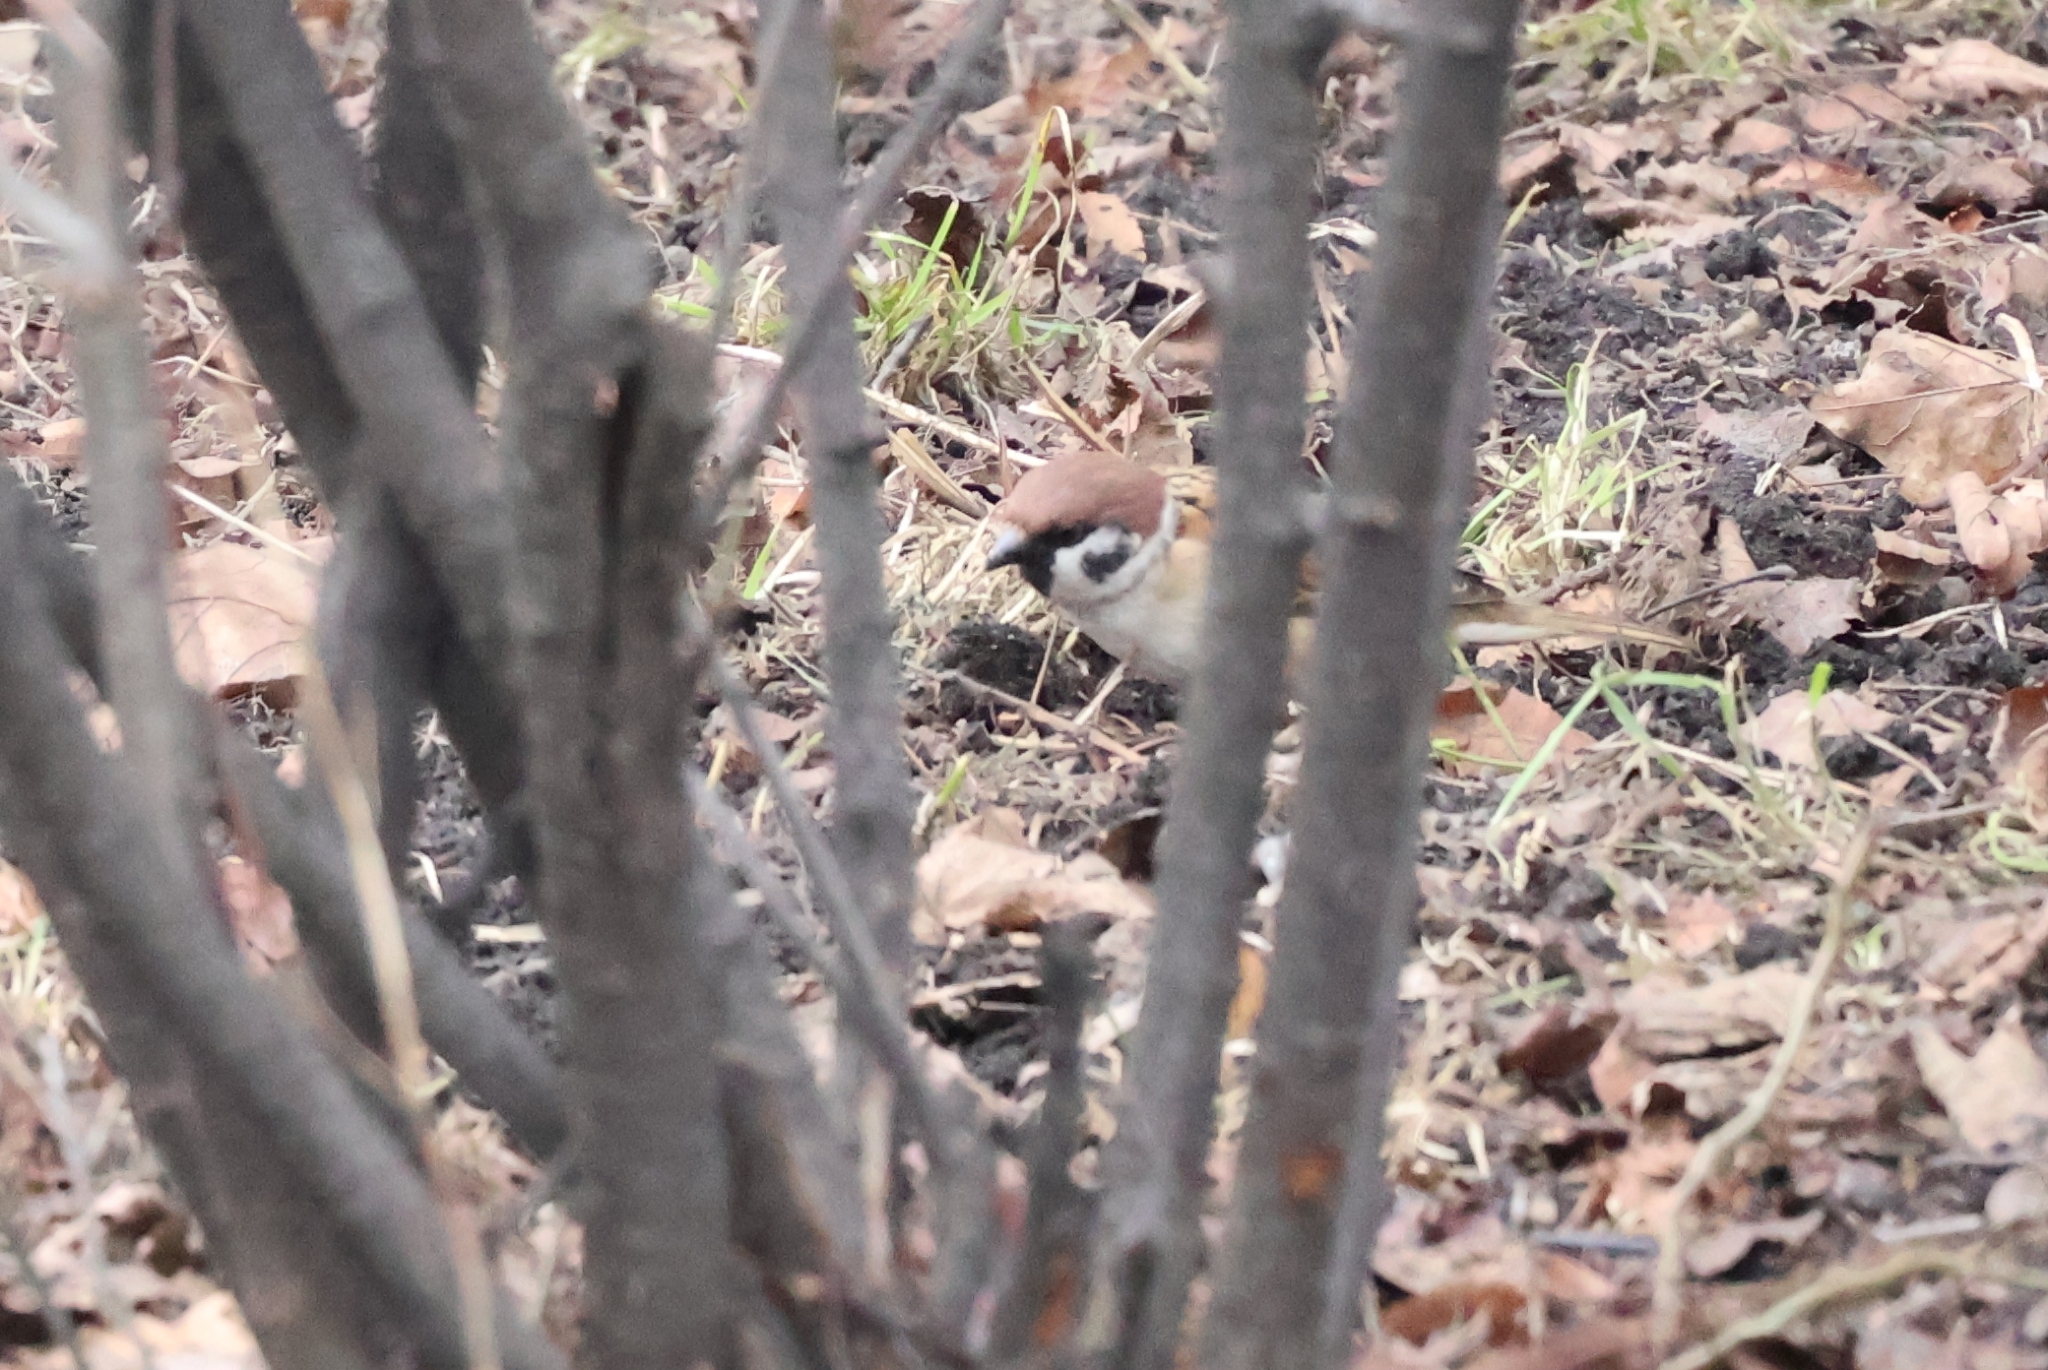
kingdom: Animalia
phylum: Chordata
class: Aves
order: Passeriformes
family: Passeridae
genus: Passer
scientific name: Passer montanus
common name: Eurasian tree sparrow
